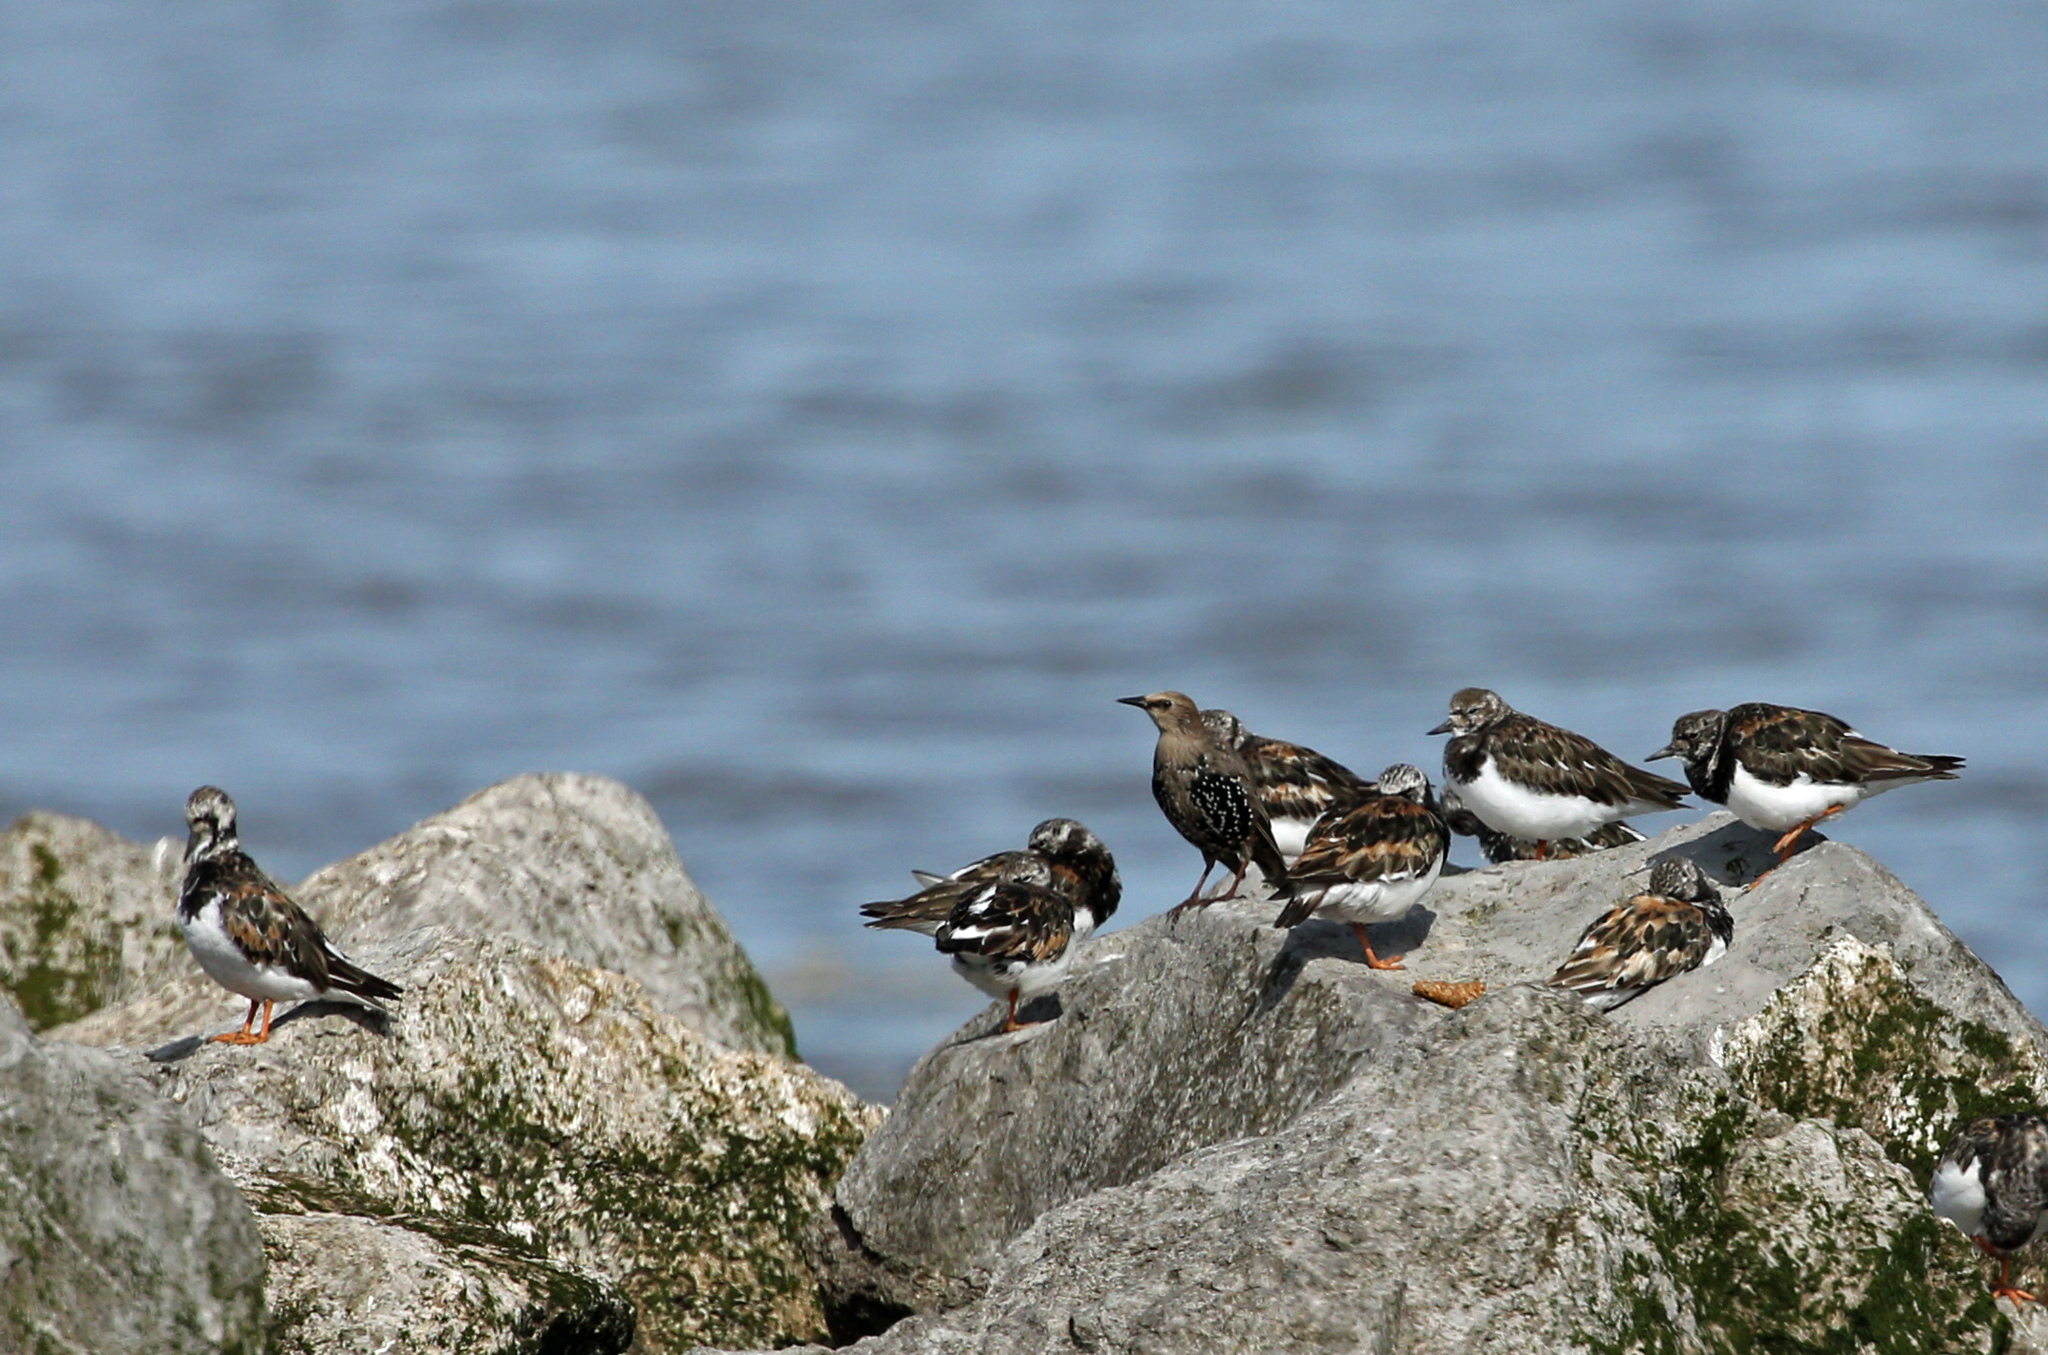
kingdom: Animalia
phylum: Chordata
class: Aves
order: Charadriiformes
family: Scolopacidae
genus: Arenaria
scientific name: Arenaria interpres
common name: Ruddy turnstone
